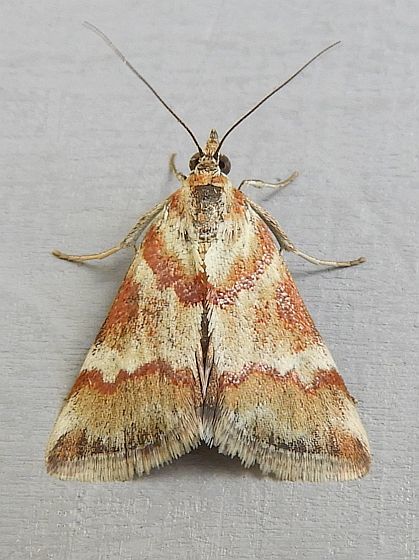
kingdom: Animalia
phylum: Arthropoda
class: Insecta
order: Lepidoptera
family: Crambidae
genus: Noctuelia
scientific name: Noctuelia Mimoschinia rufofascialis
